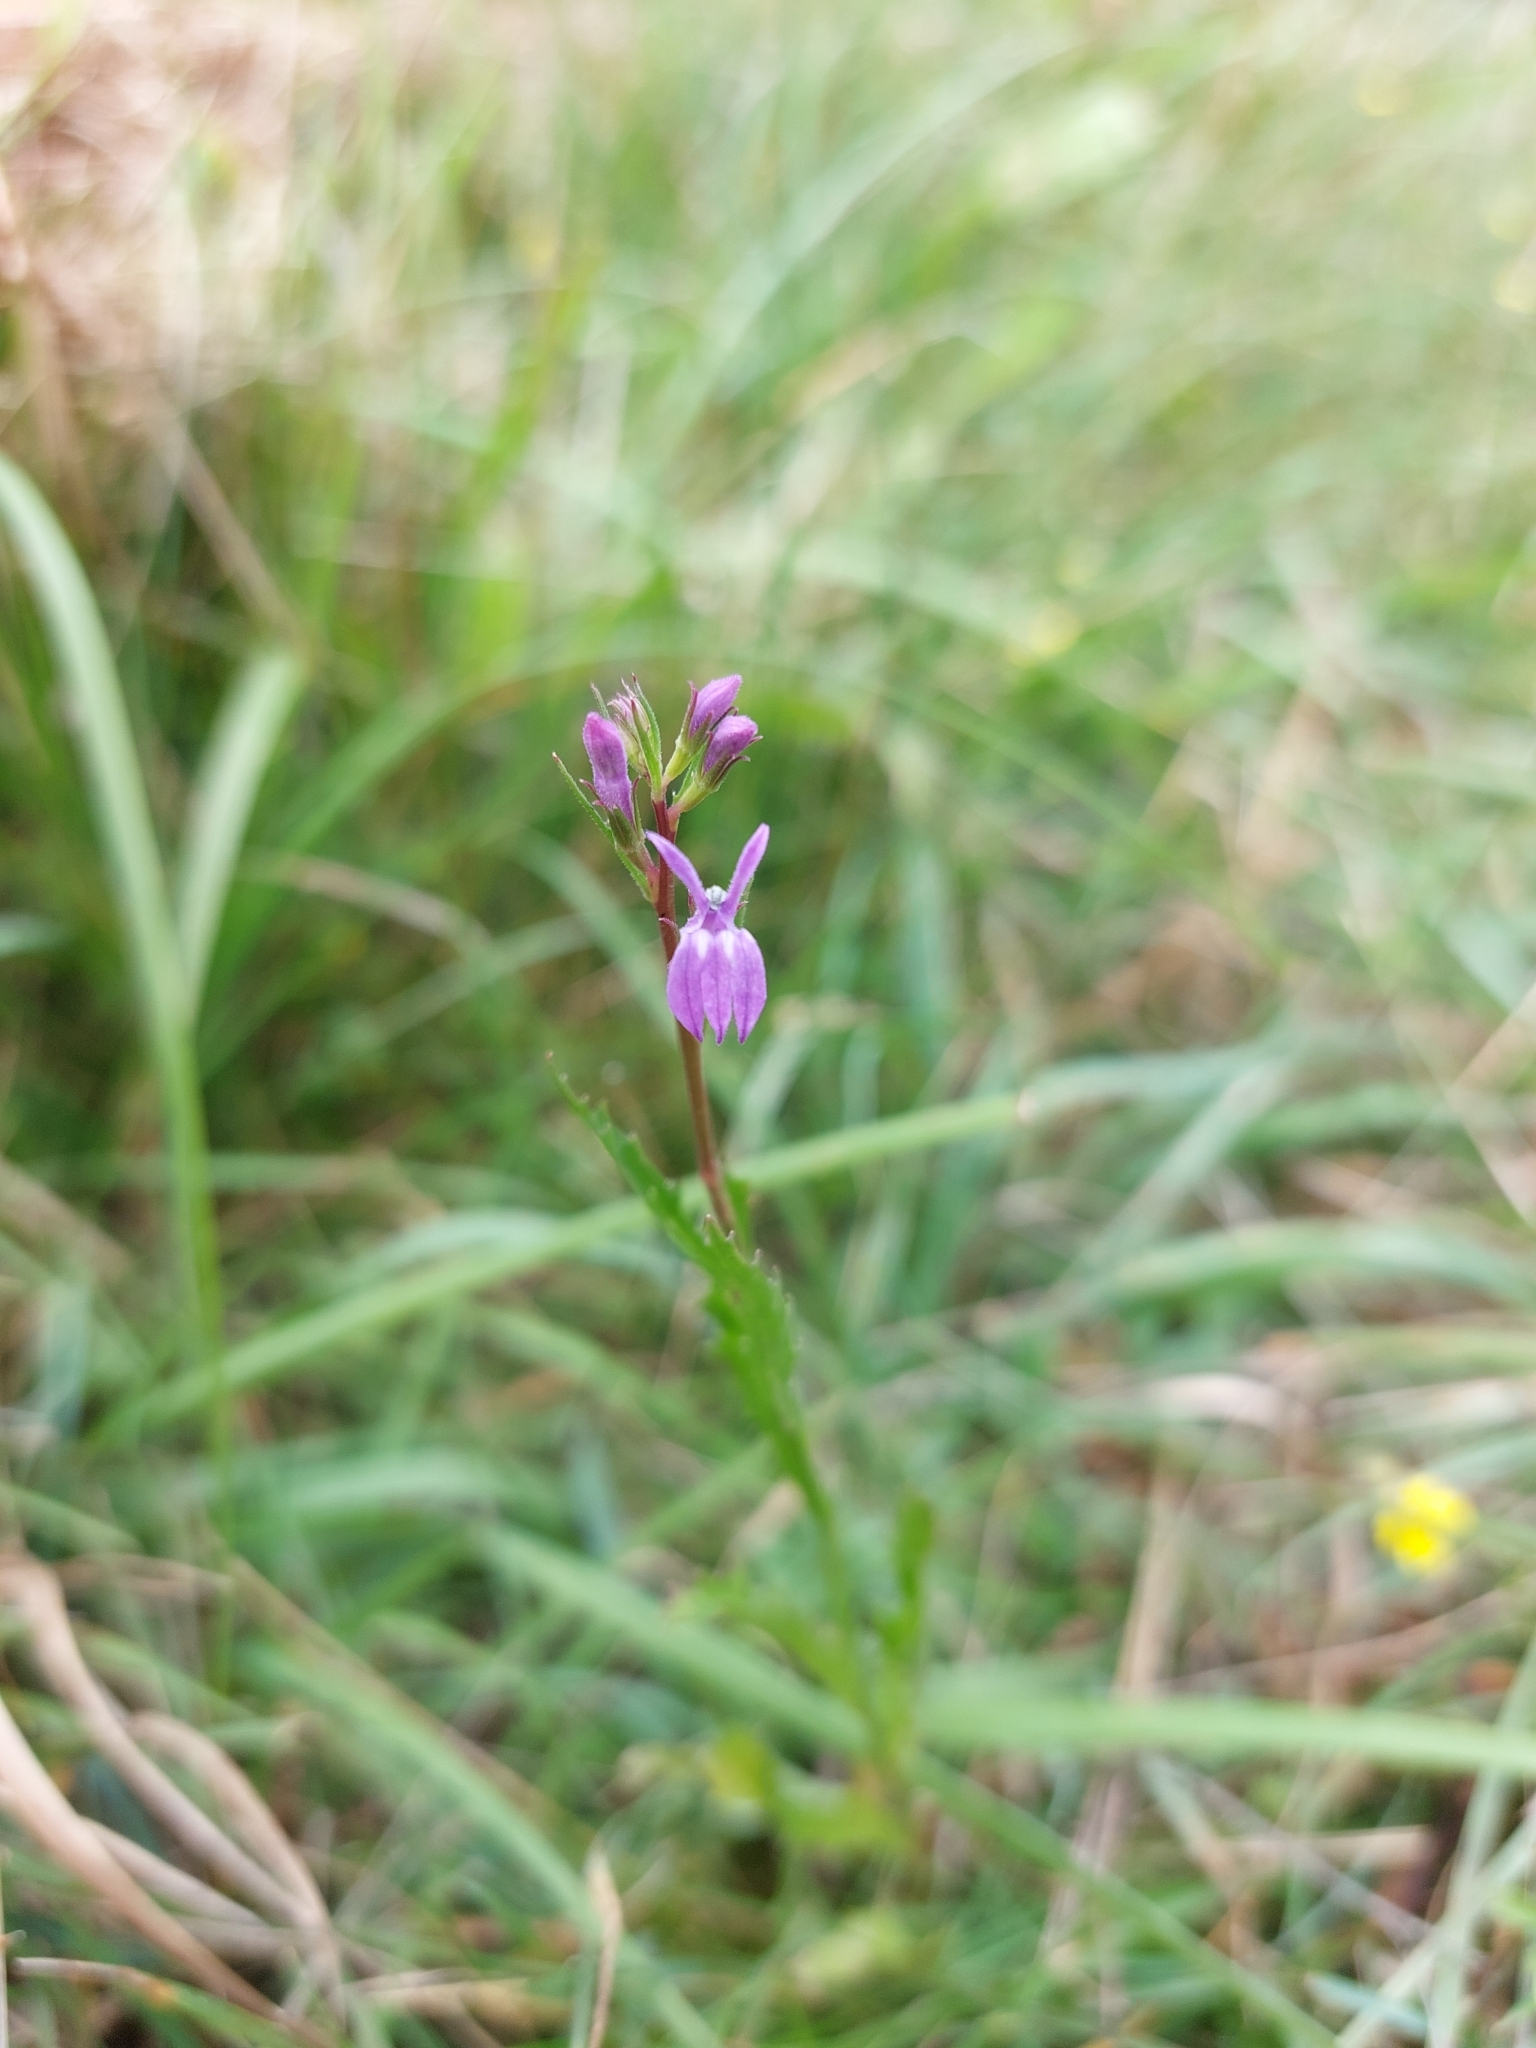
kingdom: Plantae
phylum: Tracheophyta
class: Magnoliopsida
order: Asterales
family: Campanulaceae
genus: Lobelia
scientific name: Lobelia urens
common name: Heath lobelia
